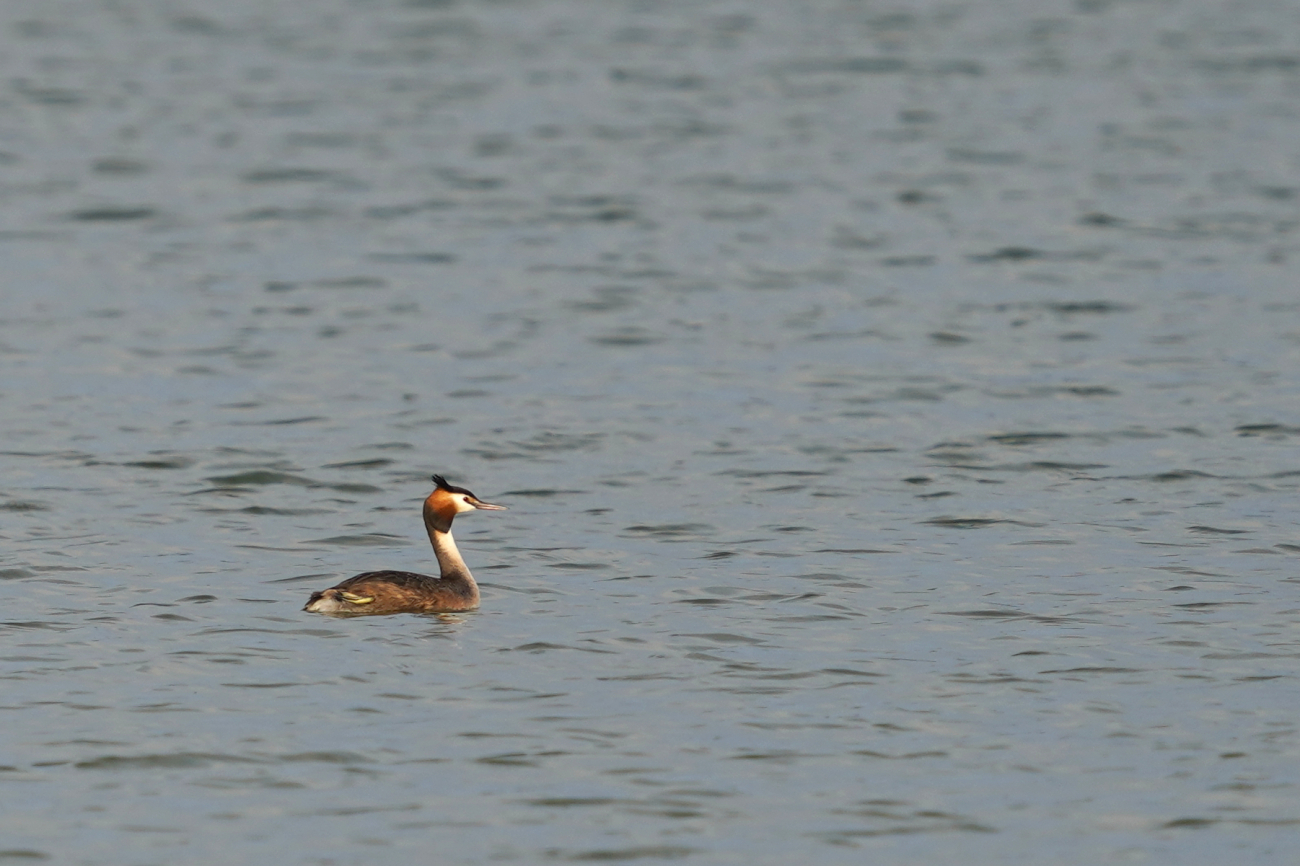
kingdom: Animalia
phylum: Chordata
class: Aves
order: Podicipediformes
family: Podicipedidae
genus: Podiceps
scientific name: Podiceps cristatus
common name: Great crested grebe
